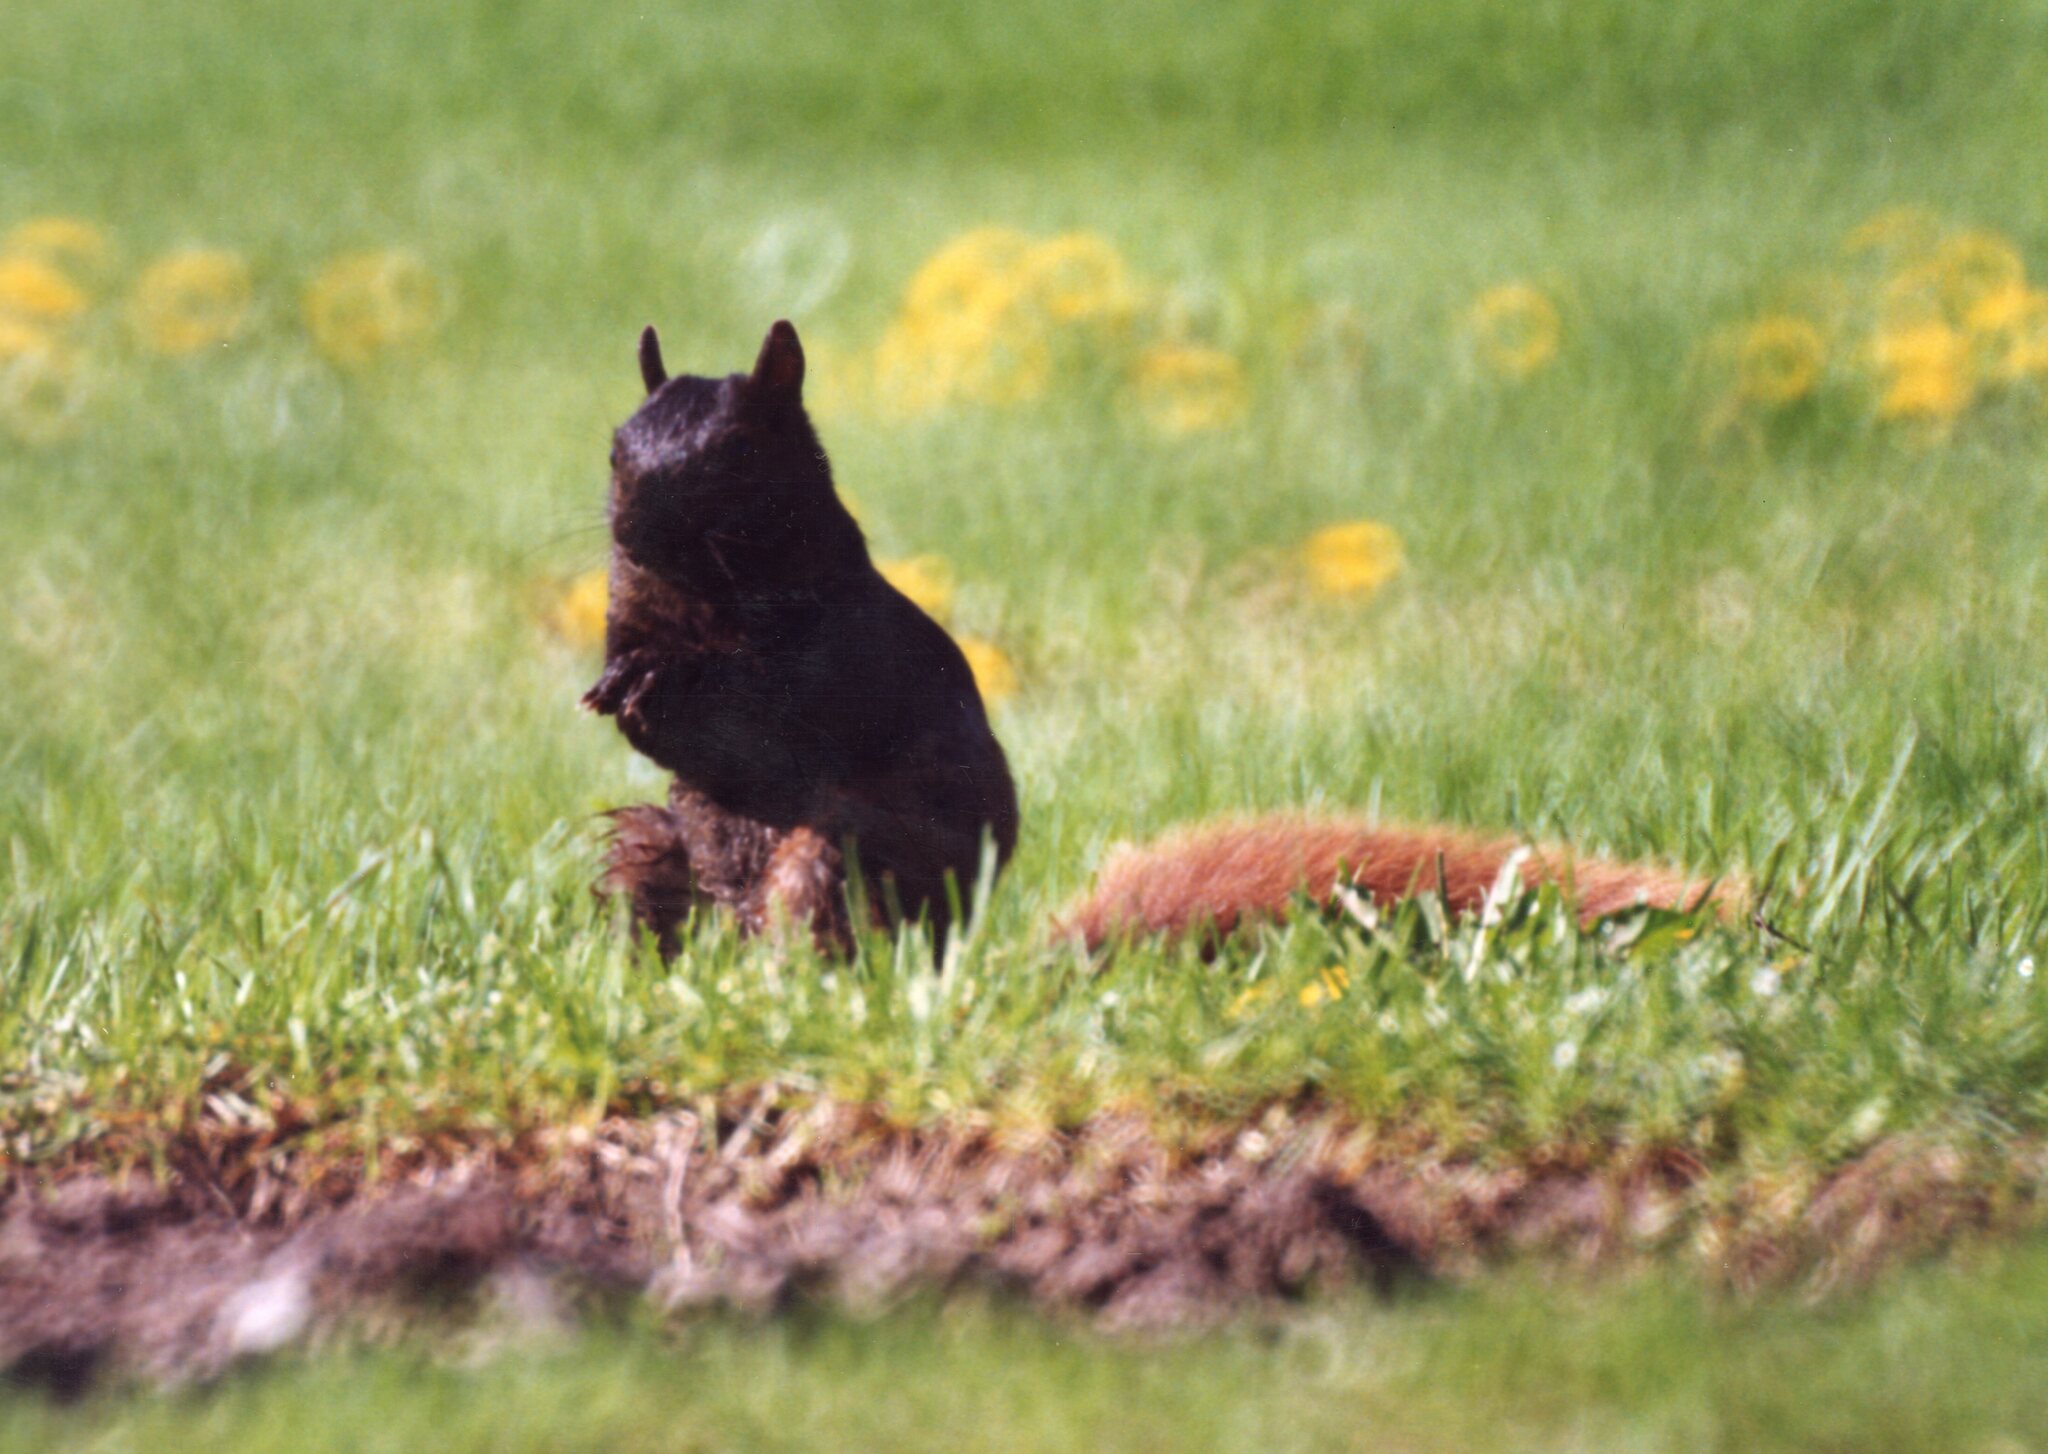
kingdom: Animalia
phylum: Chordata
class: Mammalia
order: Rodentia
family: Sciuridae
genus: Sciurus
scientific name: Sciurus carolinensis
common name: Eastern gray squirrel
